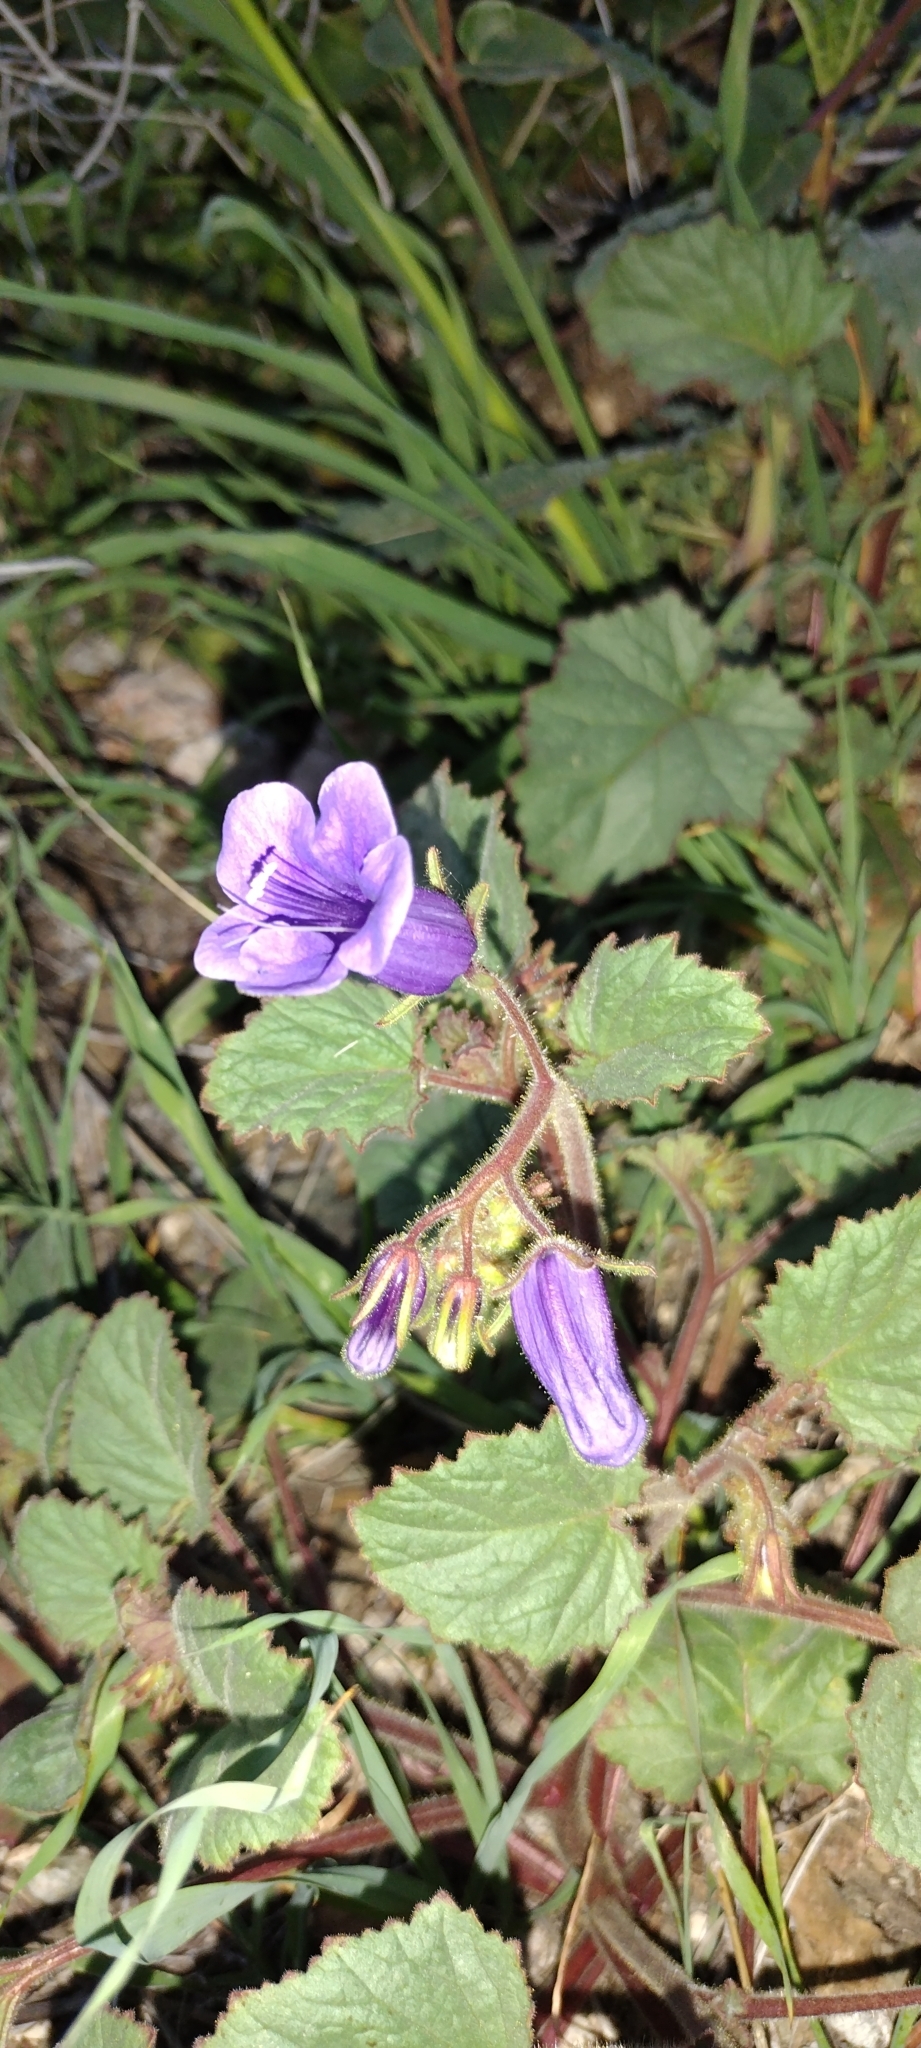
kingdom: Plantae
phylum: Tracheophyta
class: Magnoliopsida
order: Boraginales
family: Hydrophyllaceae
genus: Phacelia
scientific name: Phacelia minor
